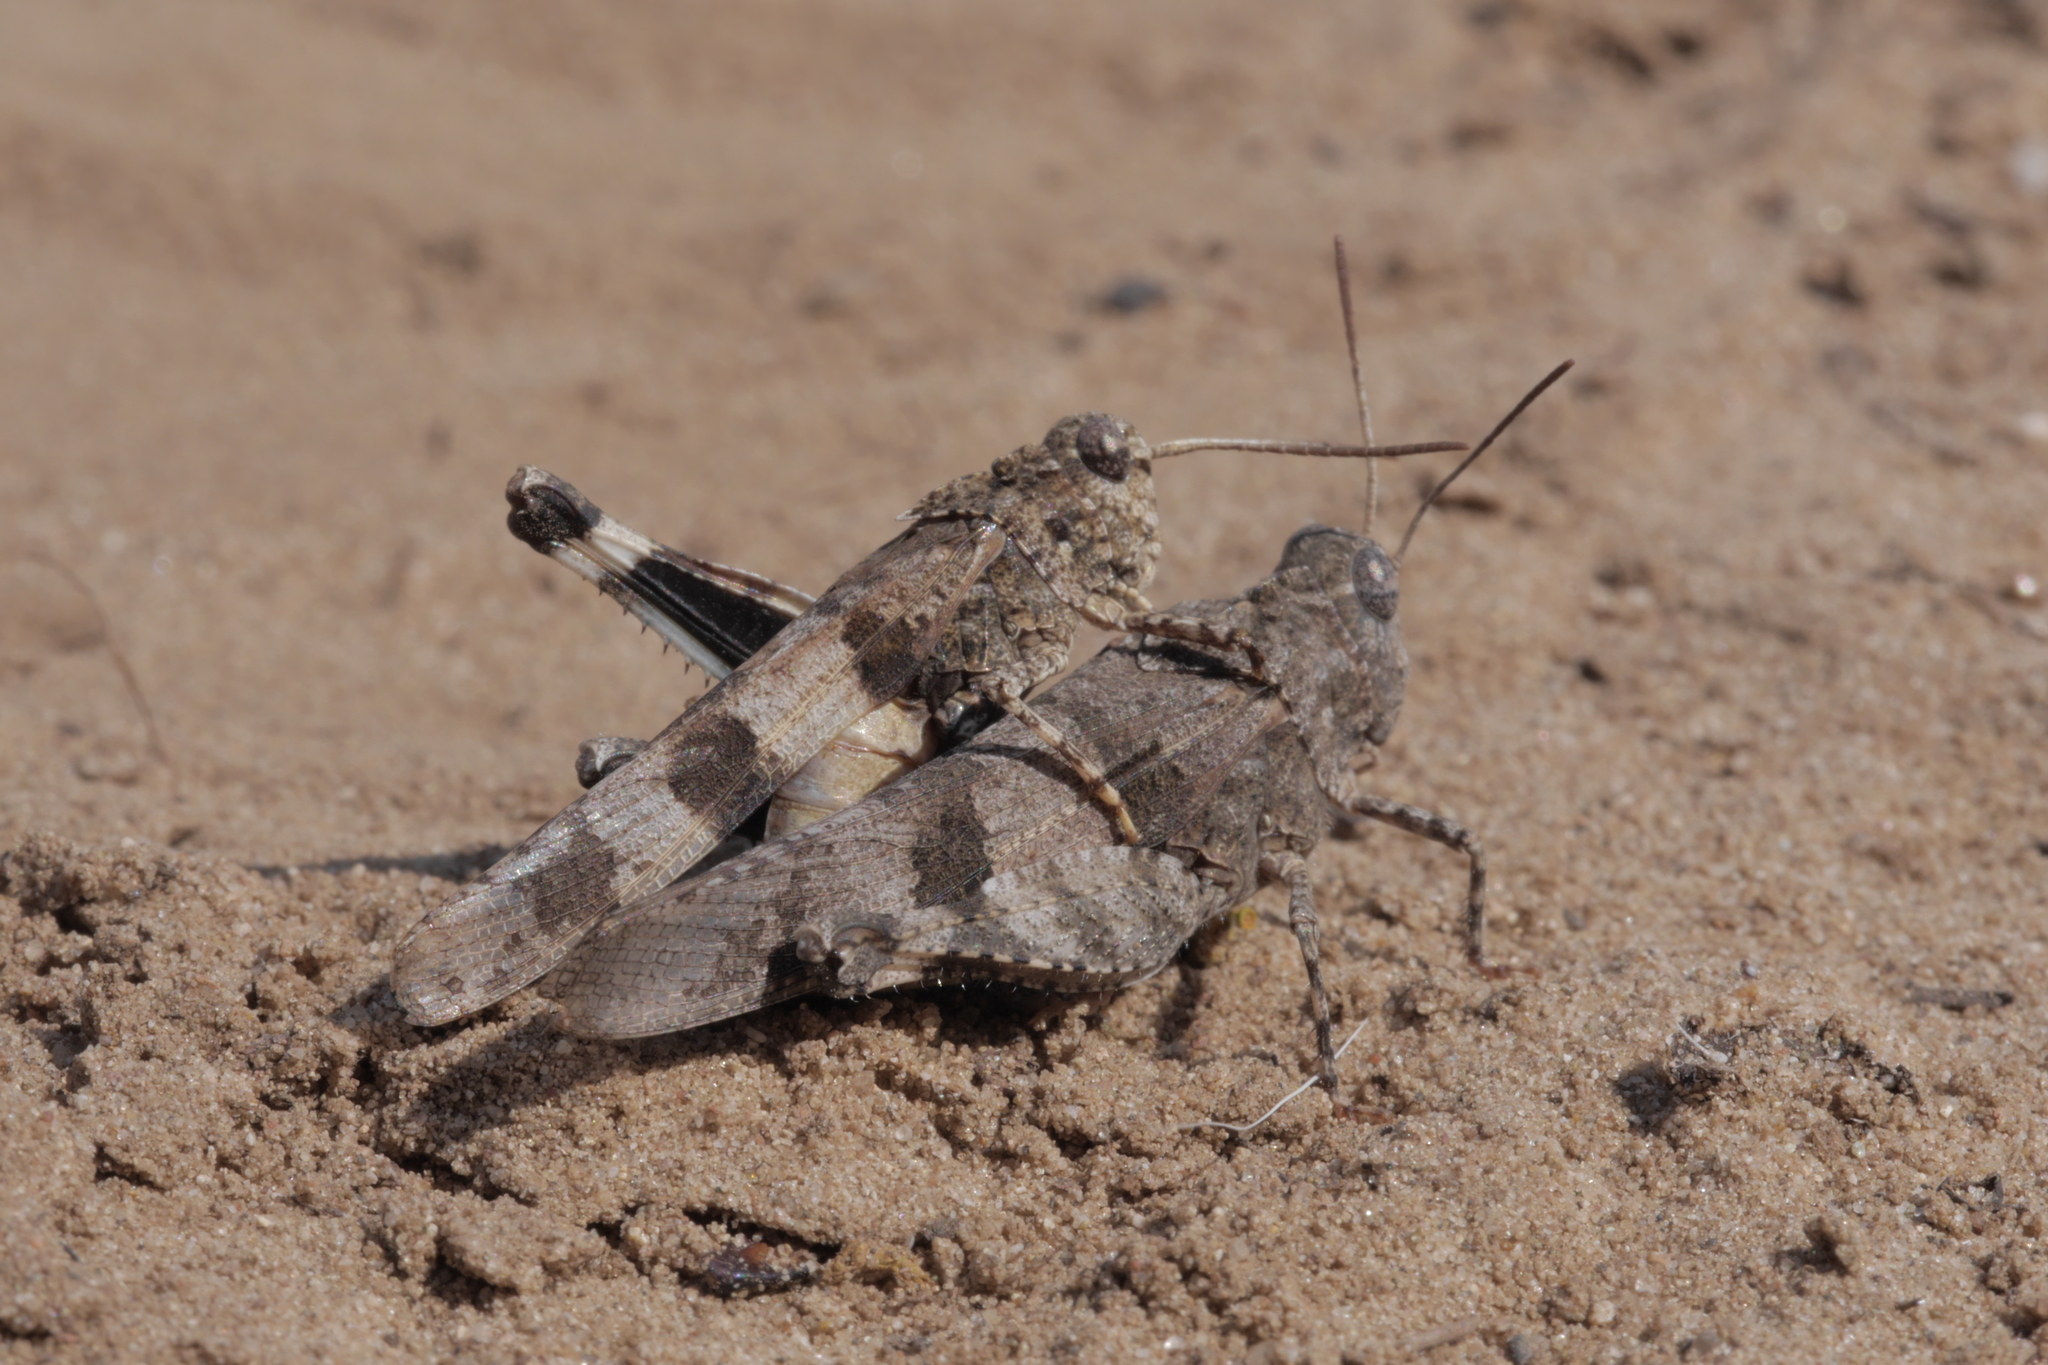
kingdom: Animalia
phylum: Arthropoda
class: Insecta
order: Orthoptera
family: Acrididae
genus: Oedipoda
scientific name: Oedipoda caerulescens
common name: Blue-winged grasshopper
